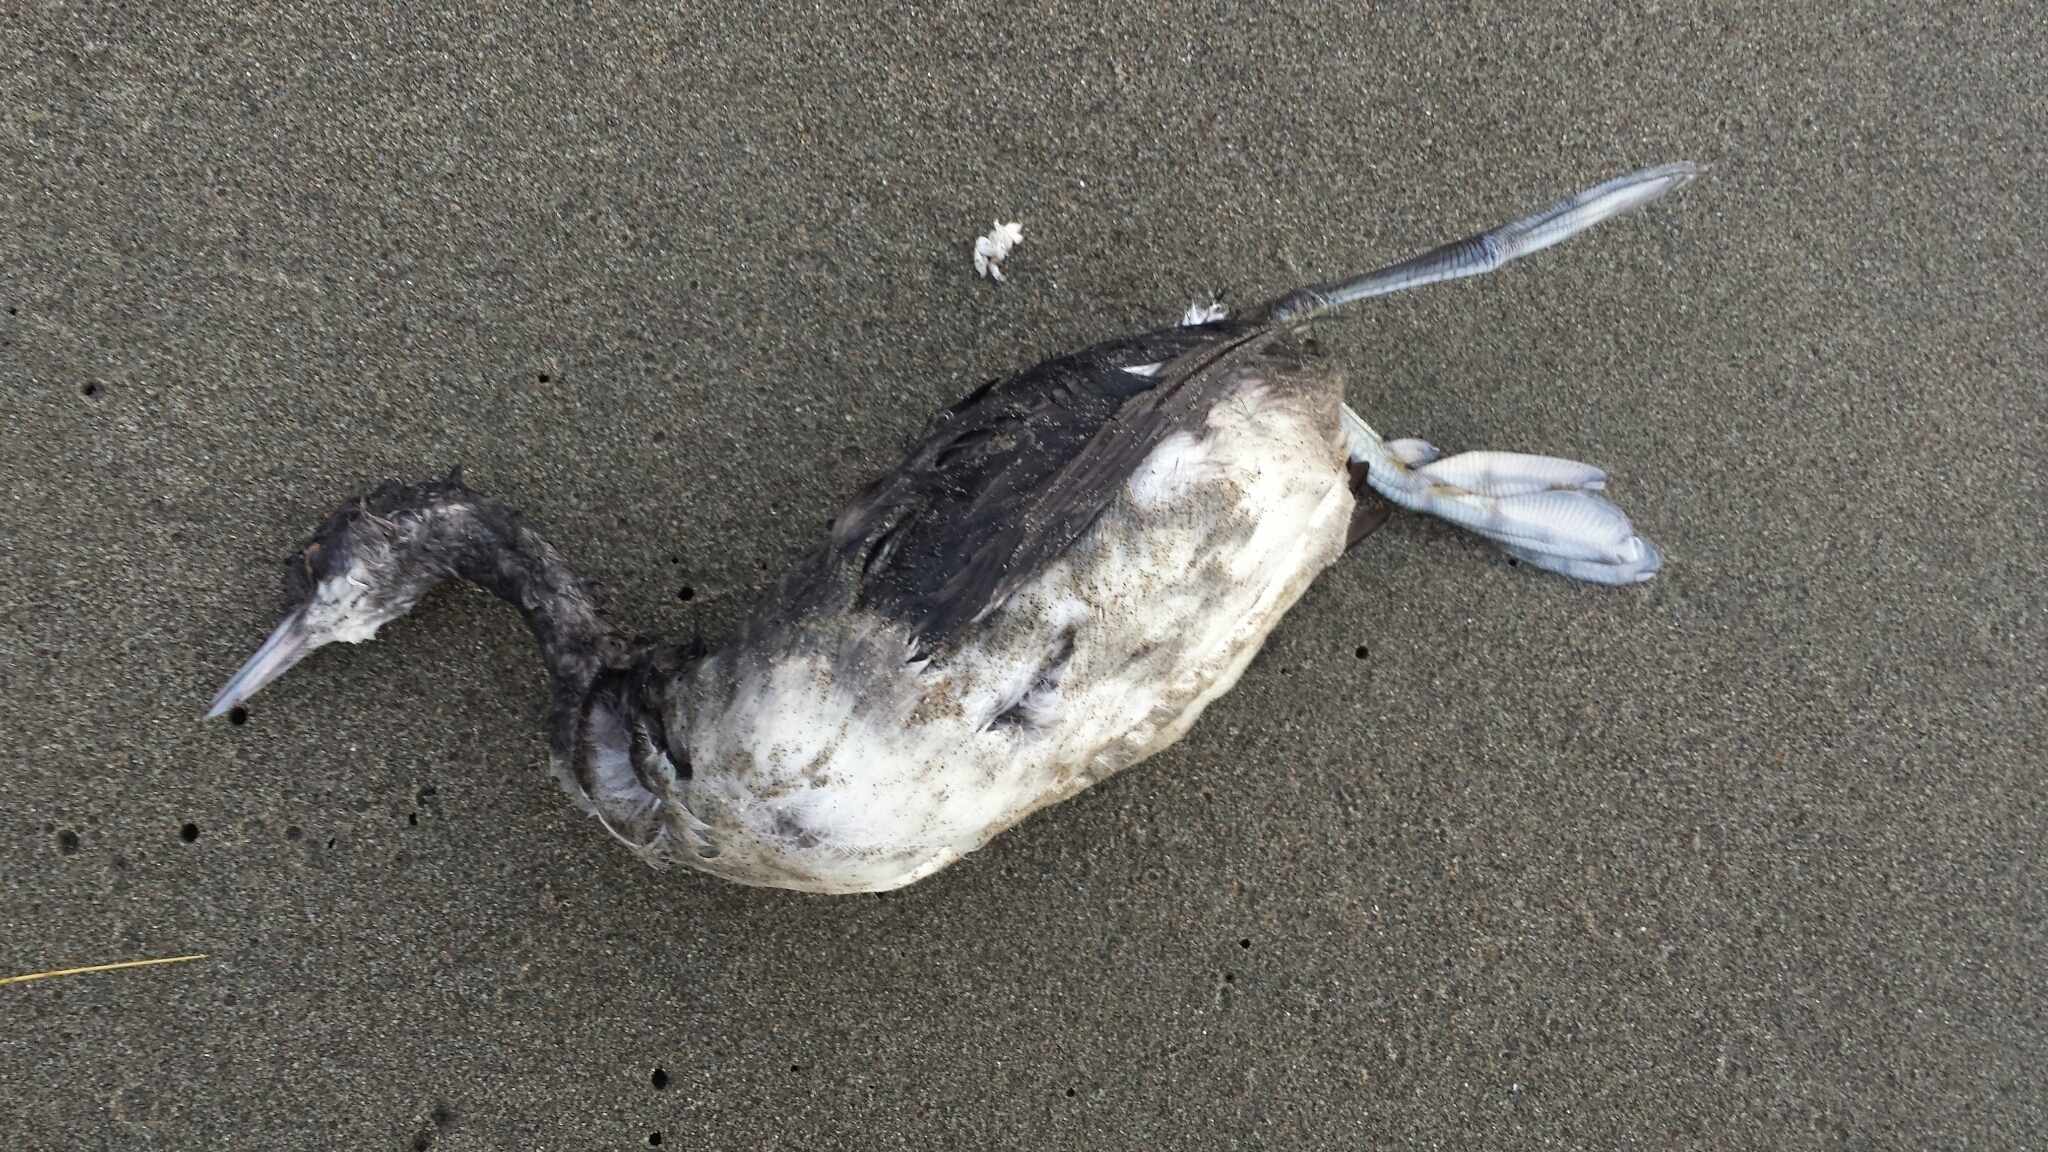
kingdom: Animalia
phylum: Chordata
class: Aves
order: Podicipediformes
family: Podicipedidae
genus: Podiceps
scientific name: Podiceps nigricollis
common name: Black-necked grebe
